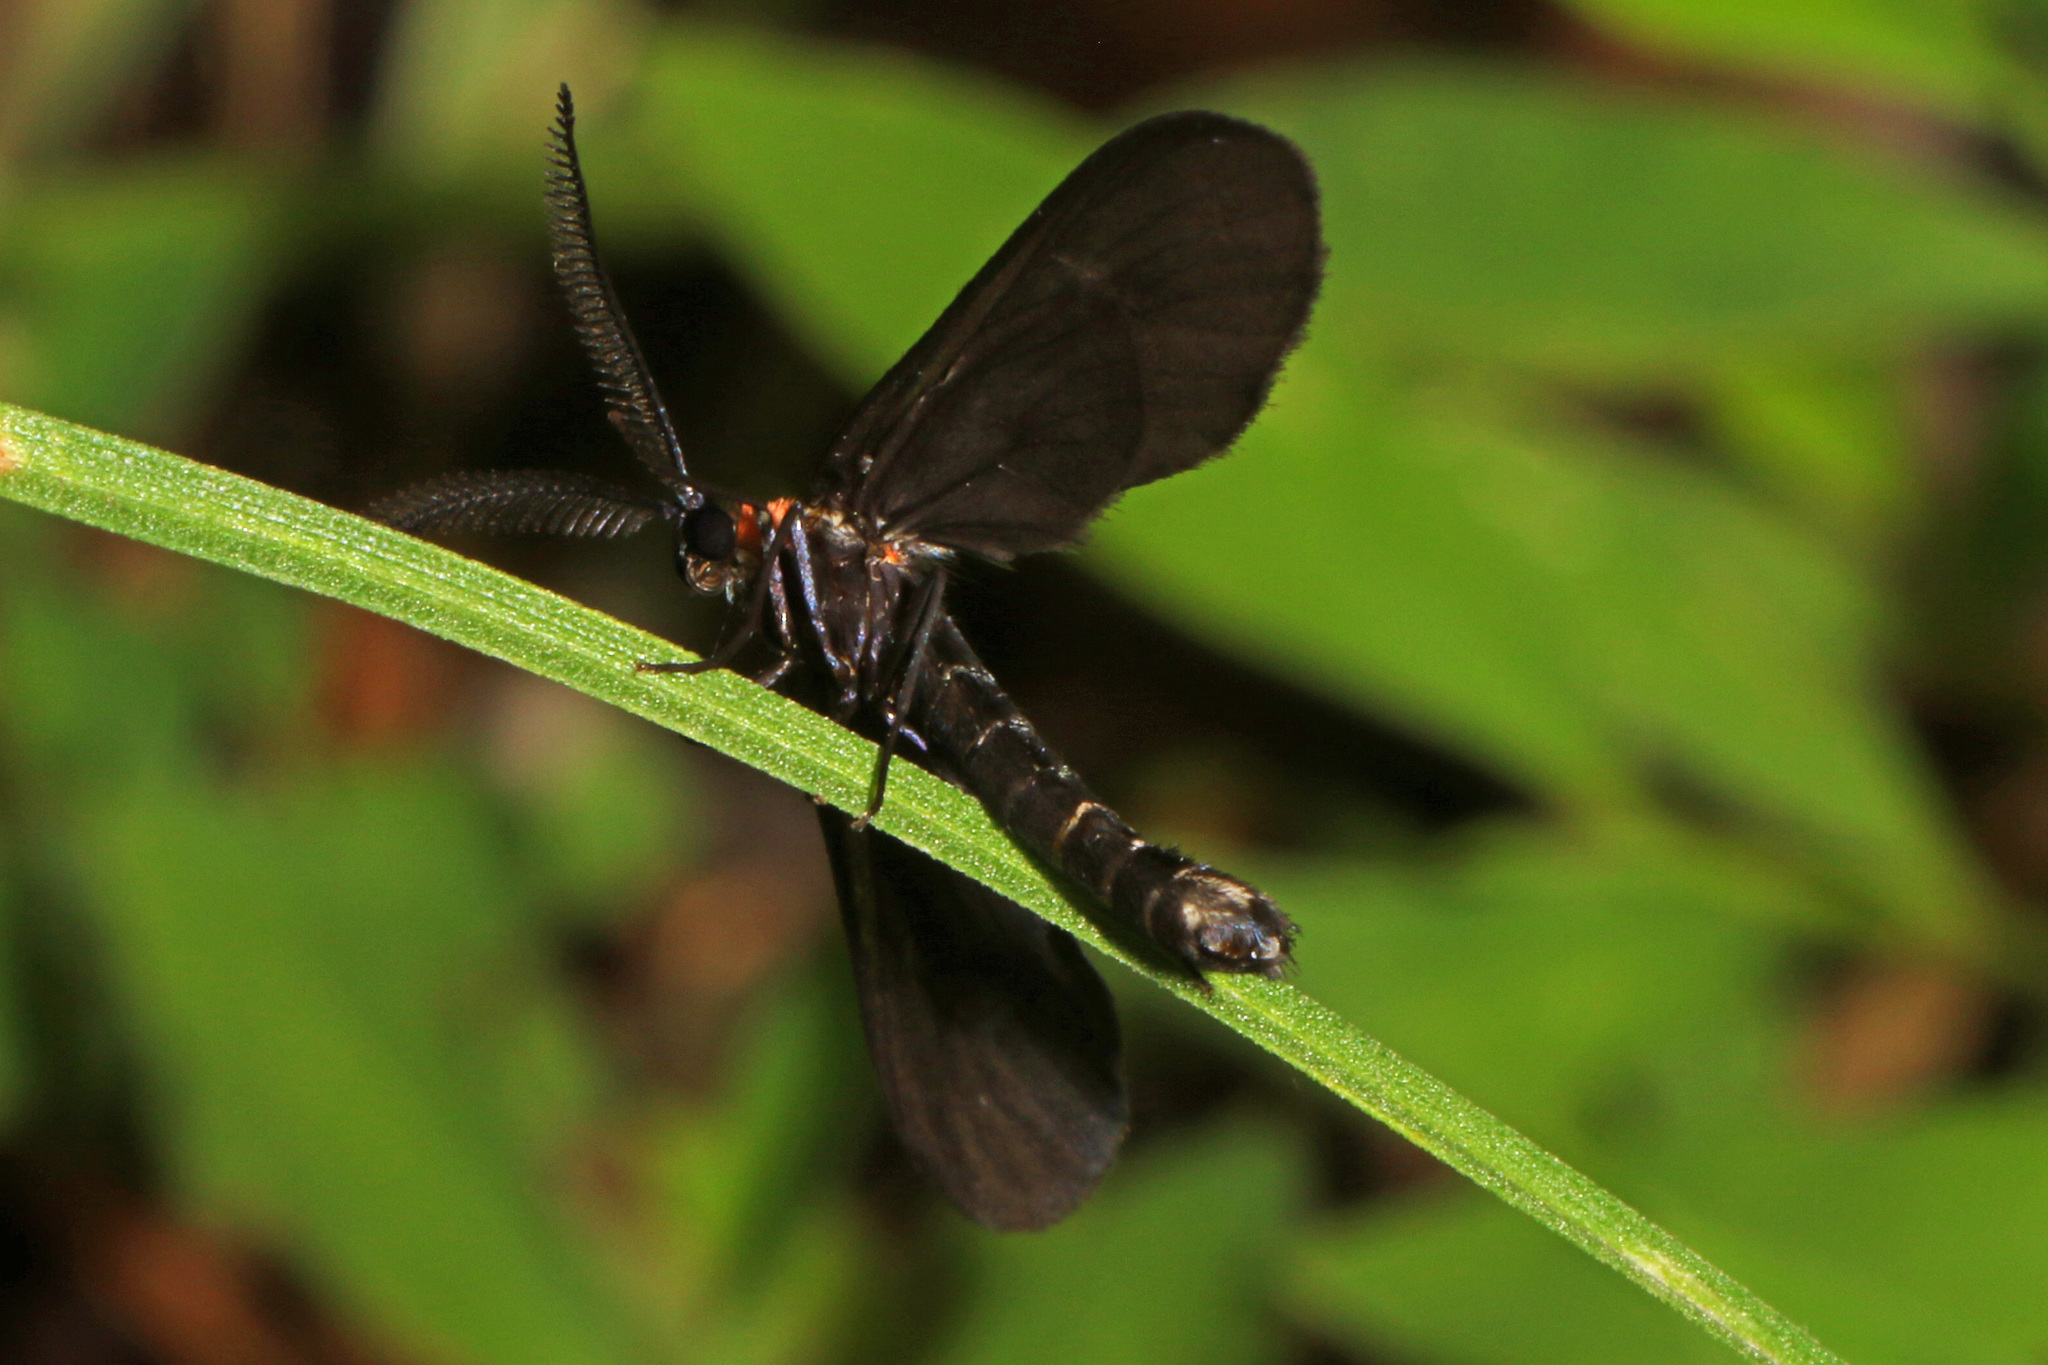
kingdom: Animalia
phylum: Arthropoda
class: Insecta
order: Lepidoptera
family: Zygaenidae
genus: Harrisina
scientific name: Harrisina americana
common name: Grapeleaf skeletonizer moth
